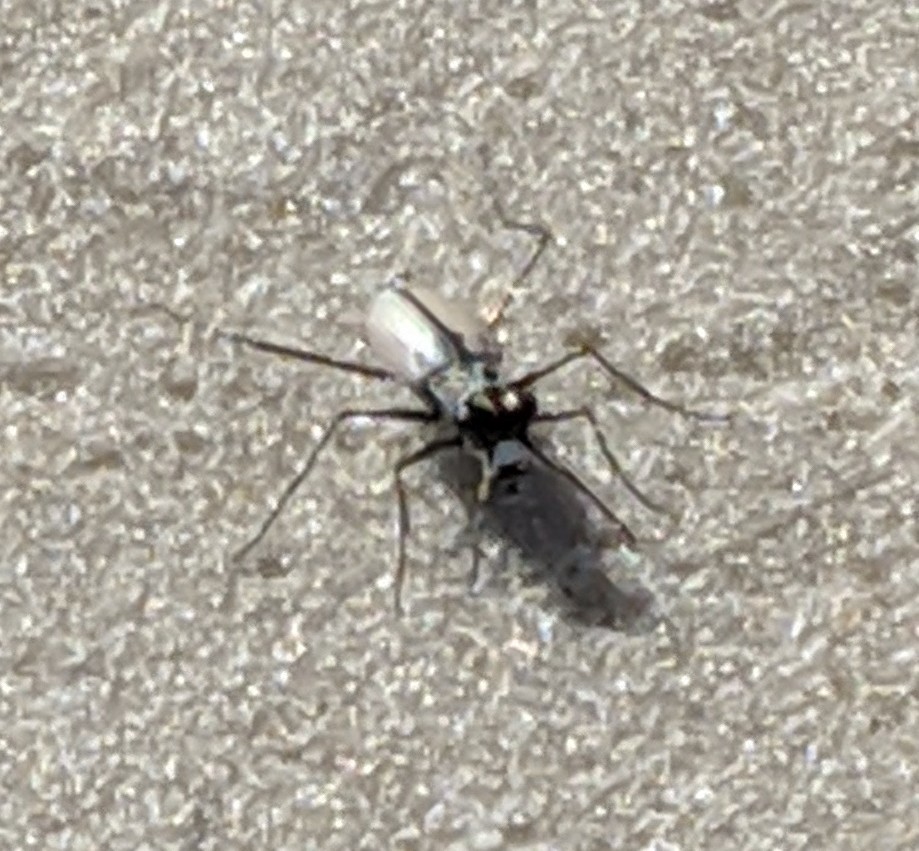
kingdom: Animalia
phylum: Arthropoda
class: Insecta
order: Coleoptera
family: Carabidae
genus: Habroscelimorpha
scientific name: Habroscelimorpha dorsalis
